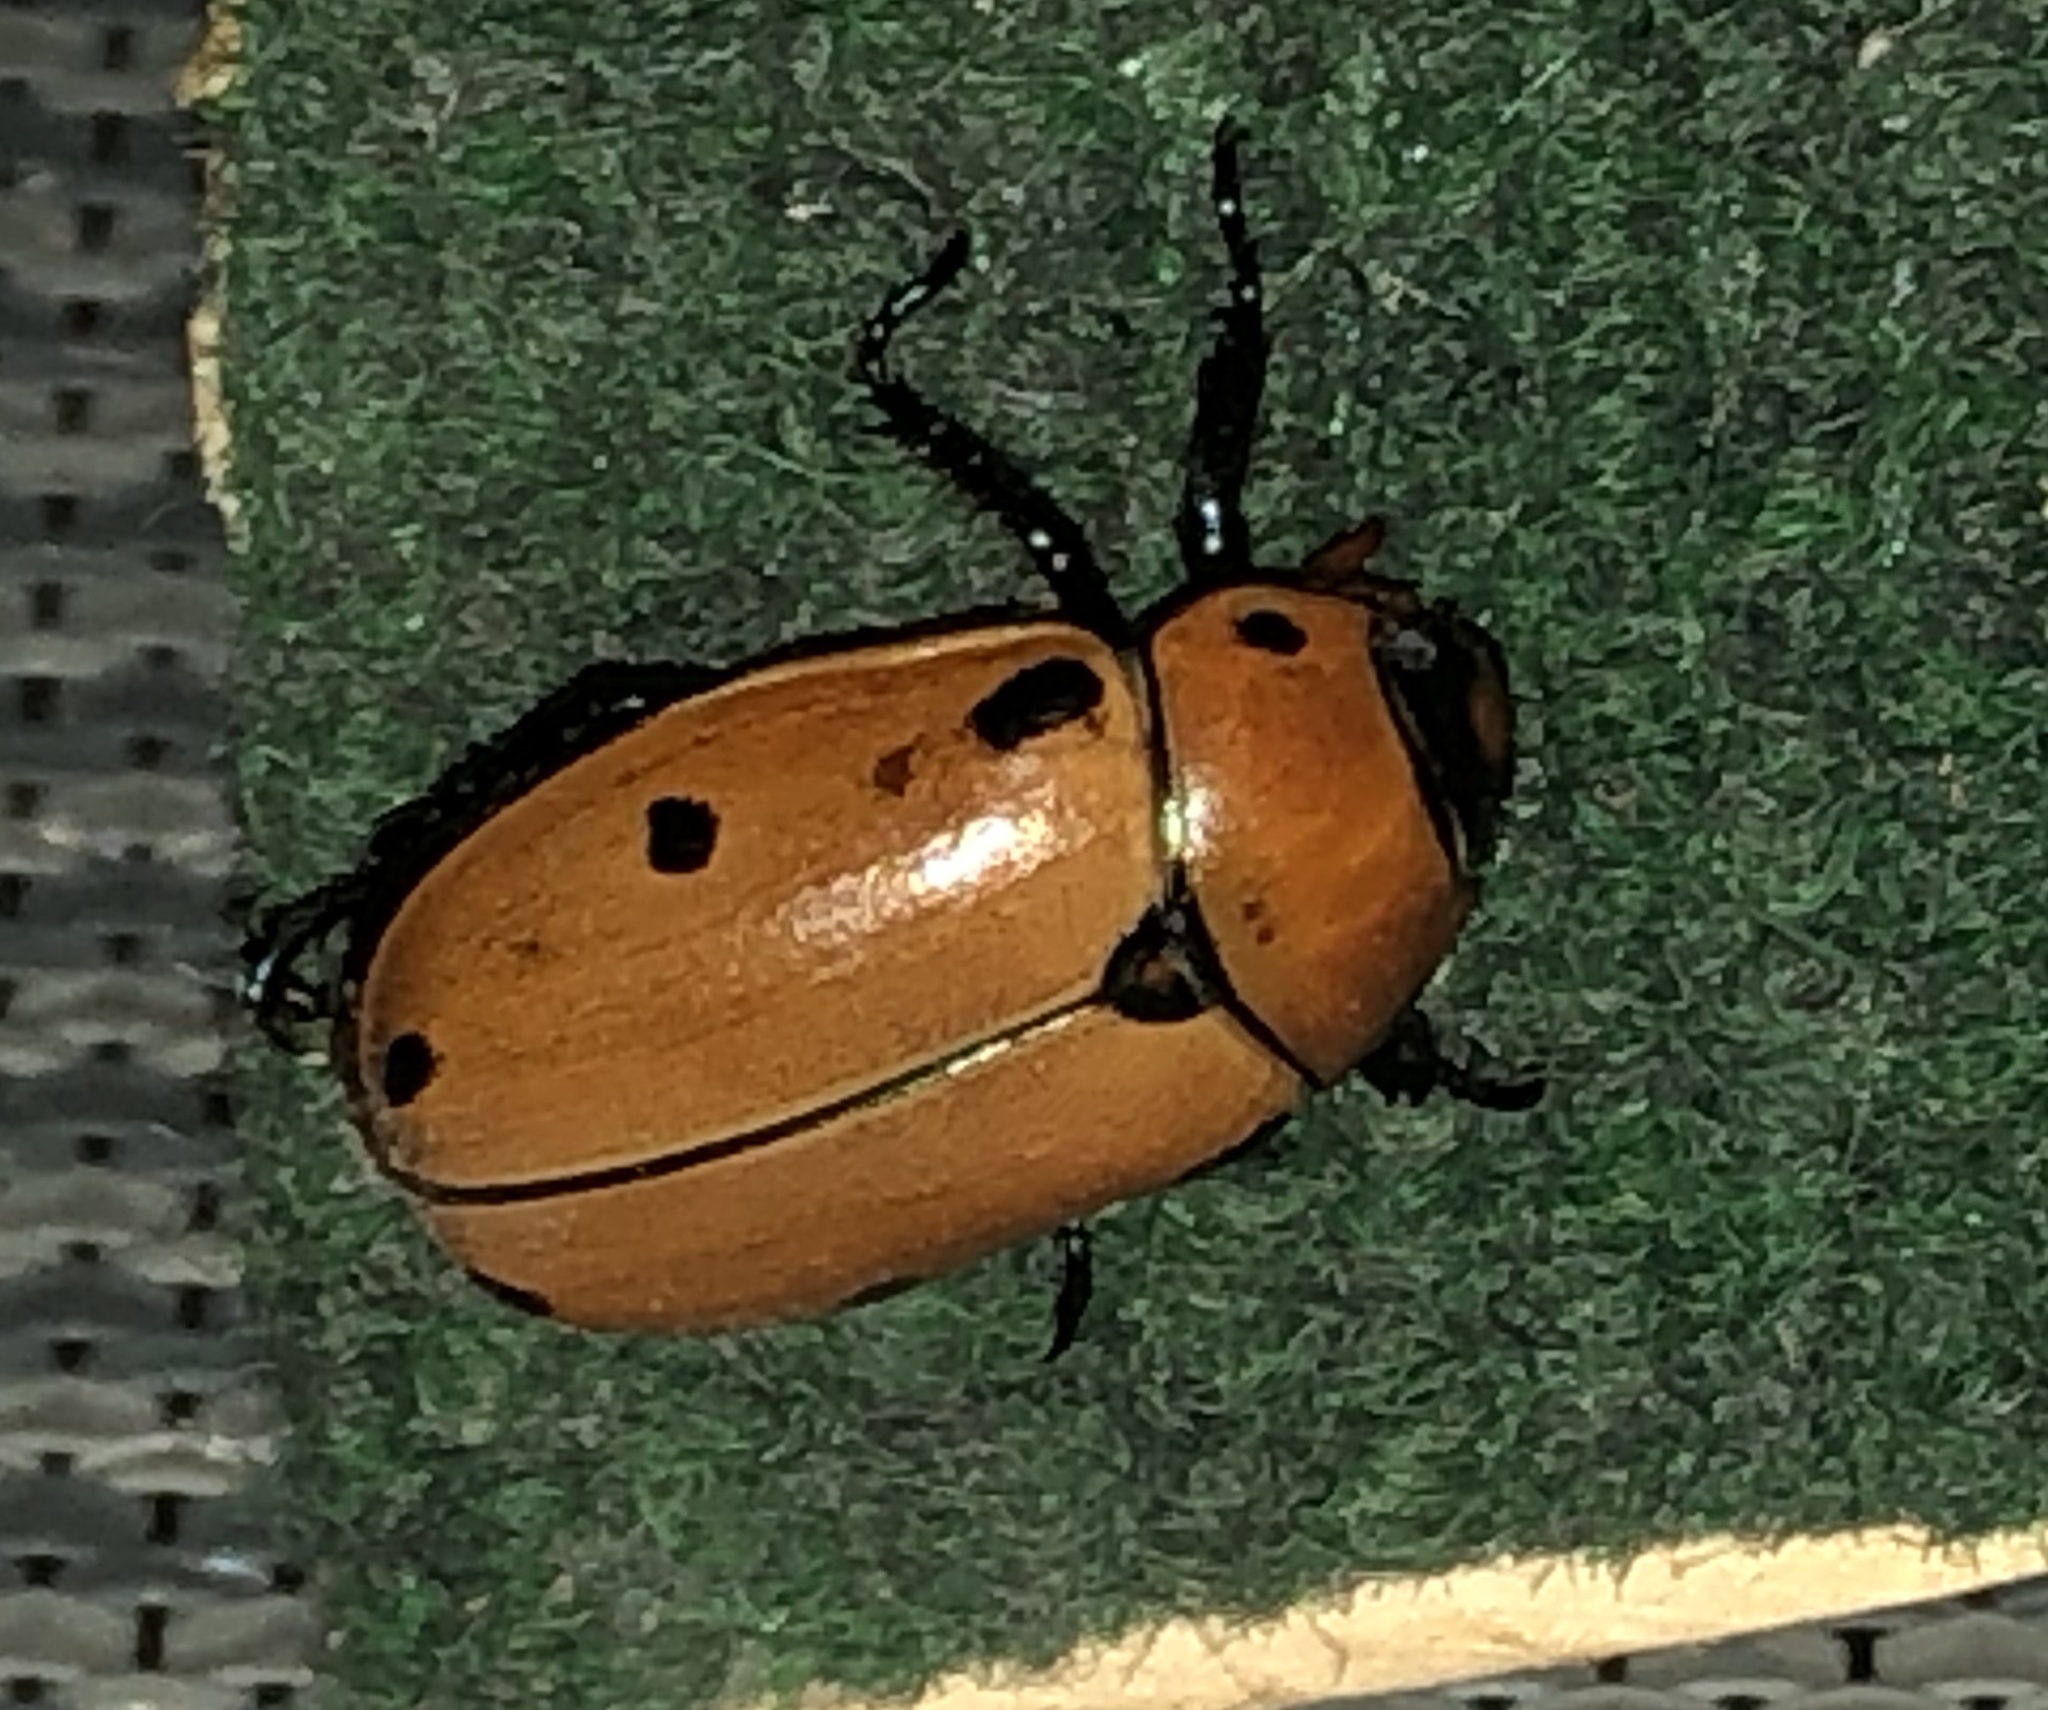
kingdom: Animalia
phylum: Arthropoda
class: Insecta
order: Coleoptera
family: Scarabaeidae
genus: Pelidnota
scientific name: Pelidnota punctata
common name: Grapevine beetle
